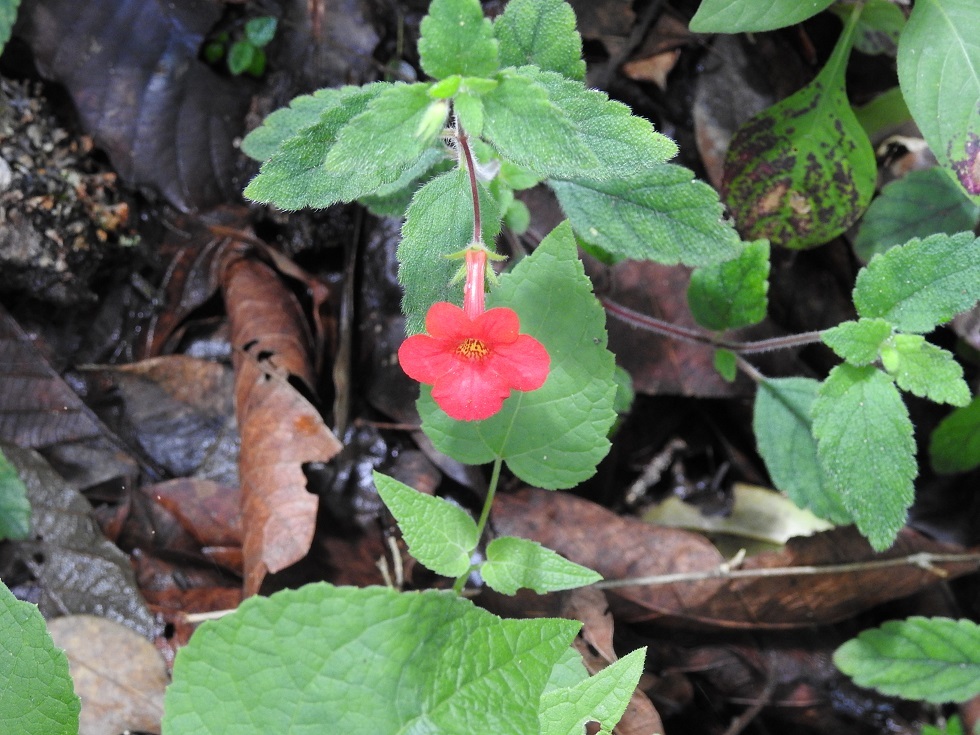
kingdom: Plantae
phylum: Tracheophyta
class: Magnoliopsida
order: Lamiales
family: Gesneriaceae
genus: Achimenes
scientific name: Achimenes erecta
